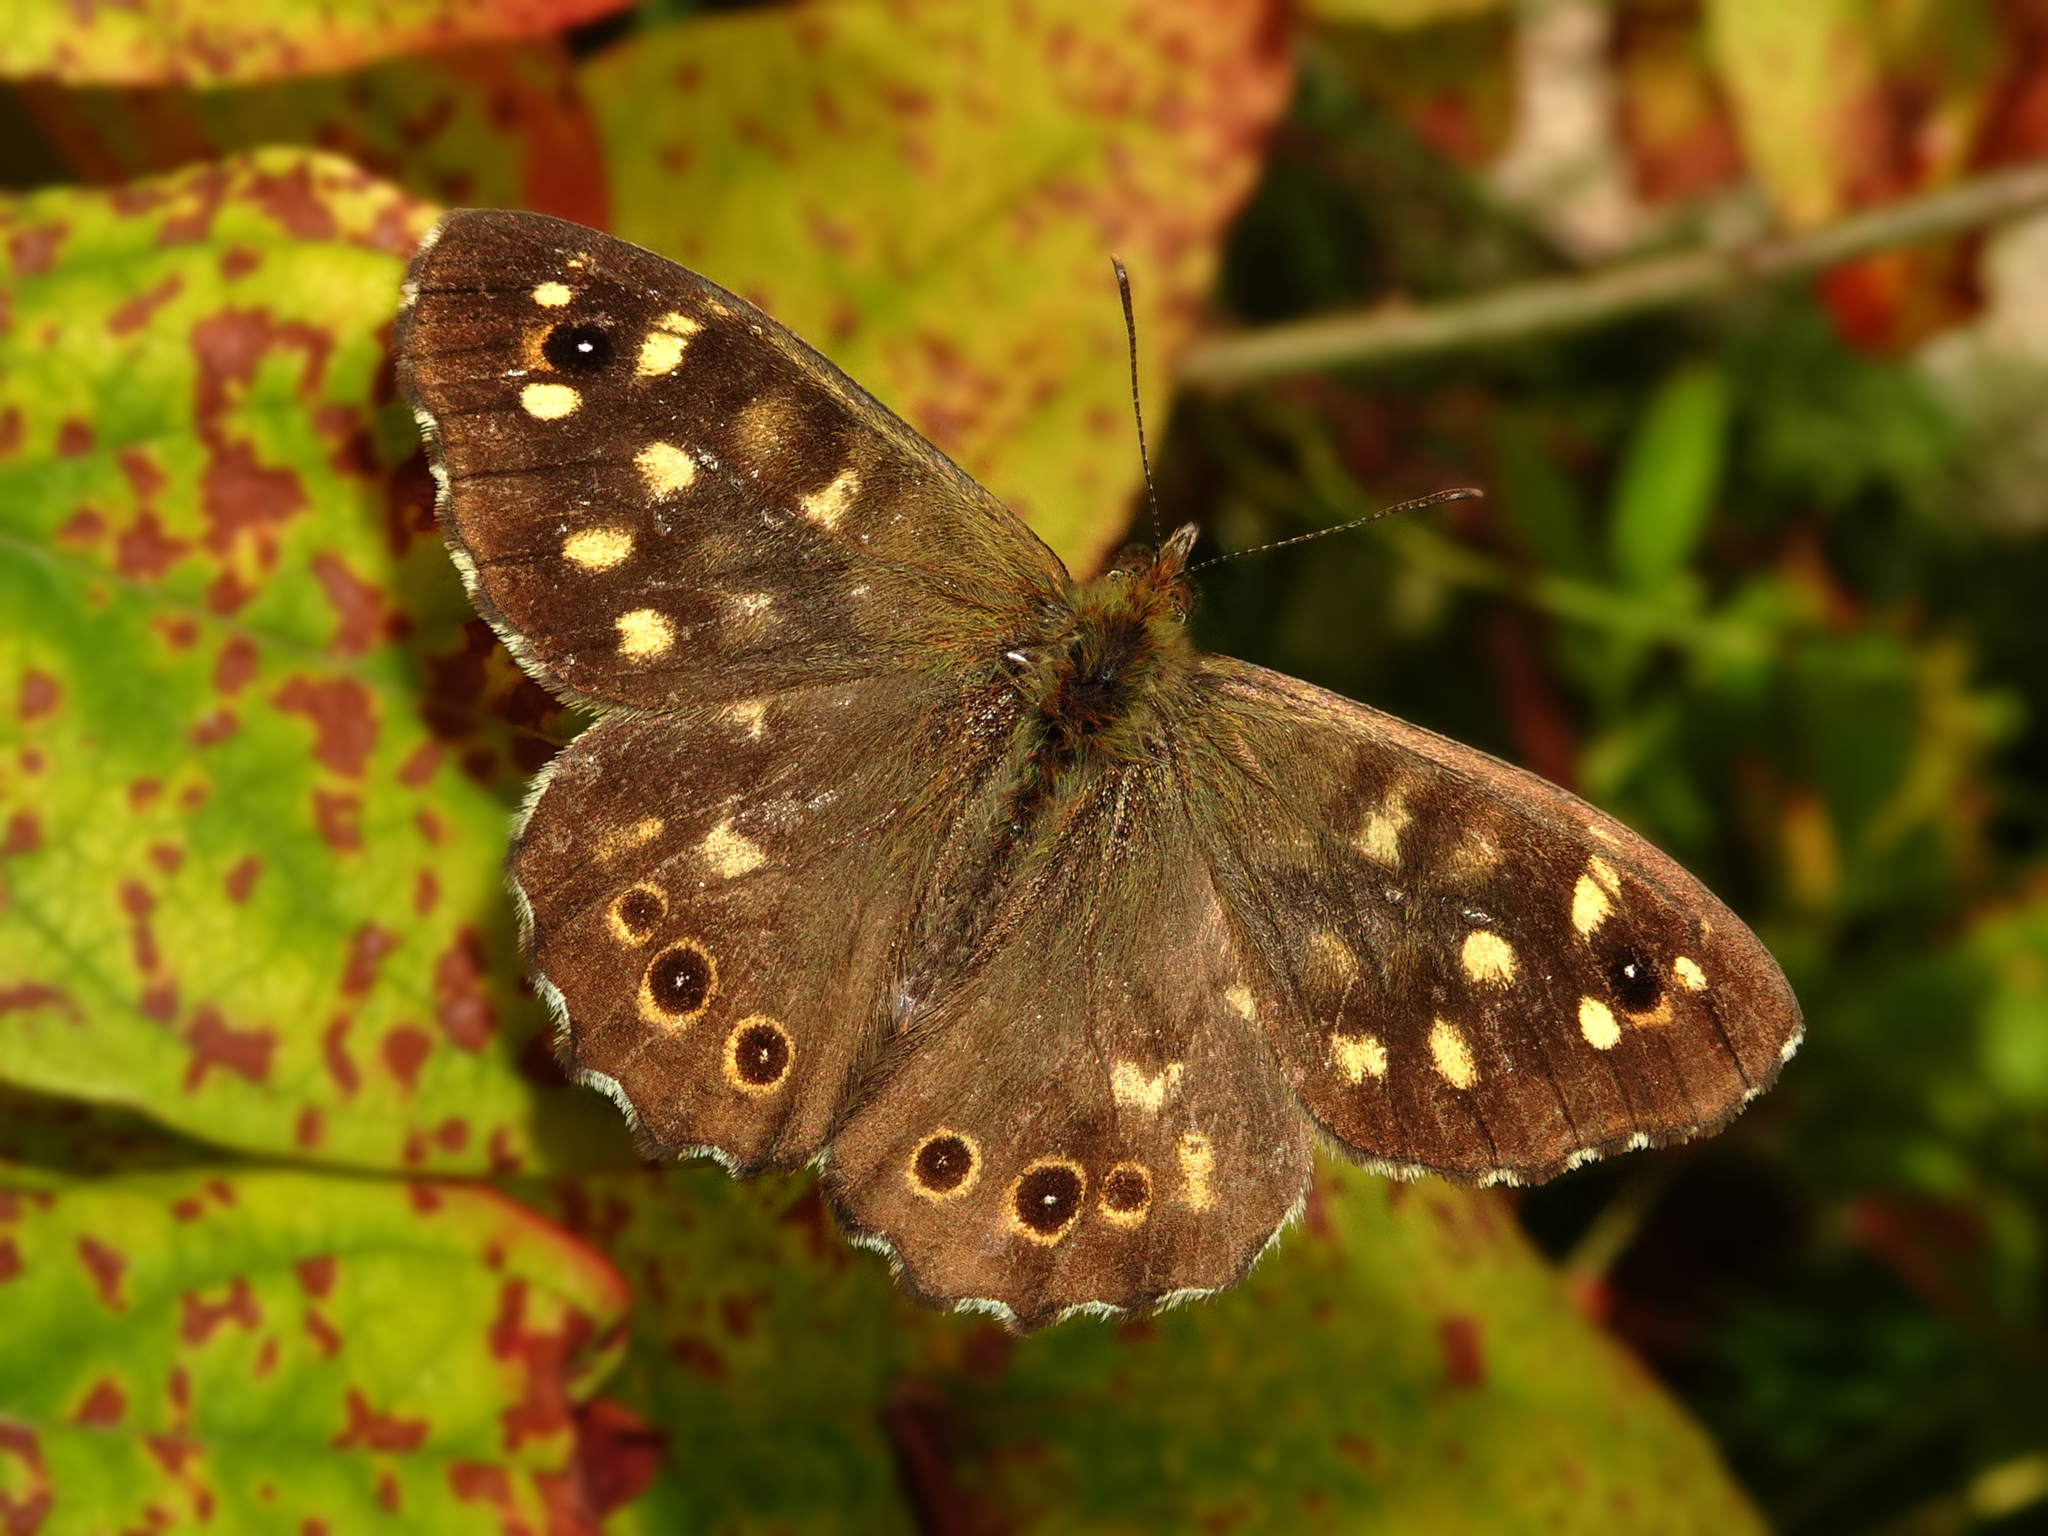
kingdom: Animalia
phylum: Arthropoda
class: Insecta
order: Lepidoptera
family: Nymphalidae
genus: Pararge
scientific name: Pararge aegeria
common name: Speckled wood
